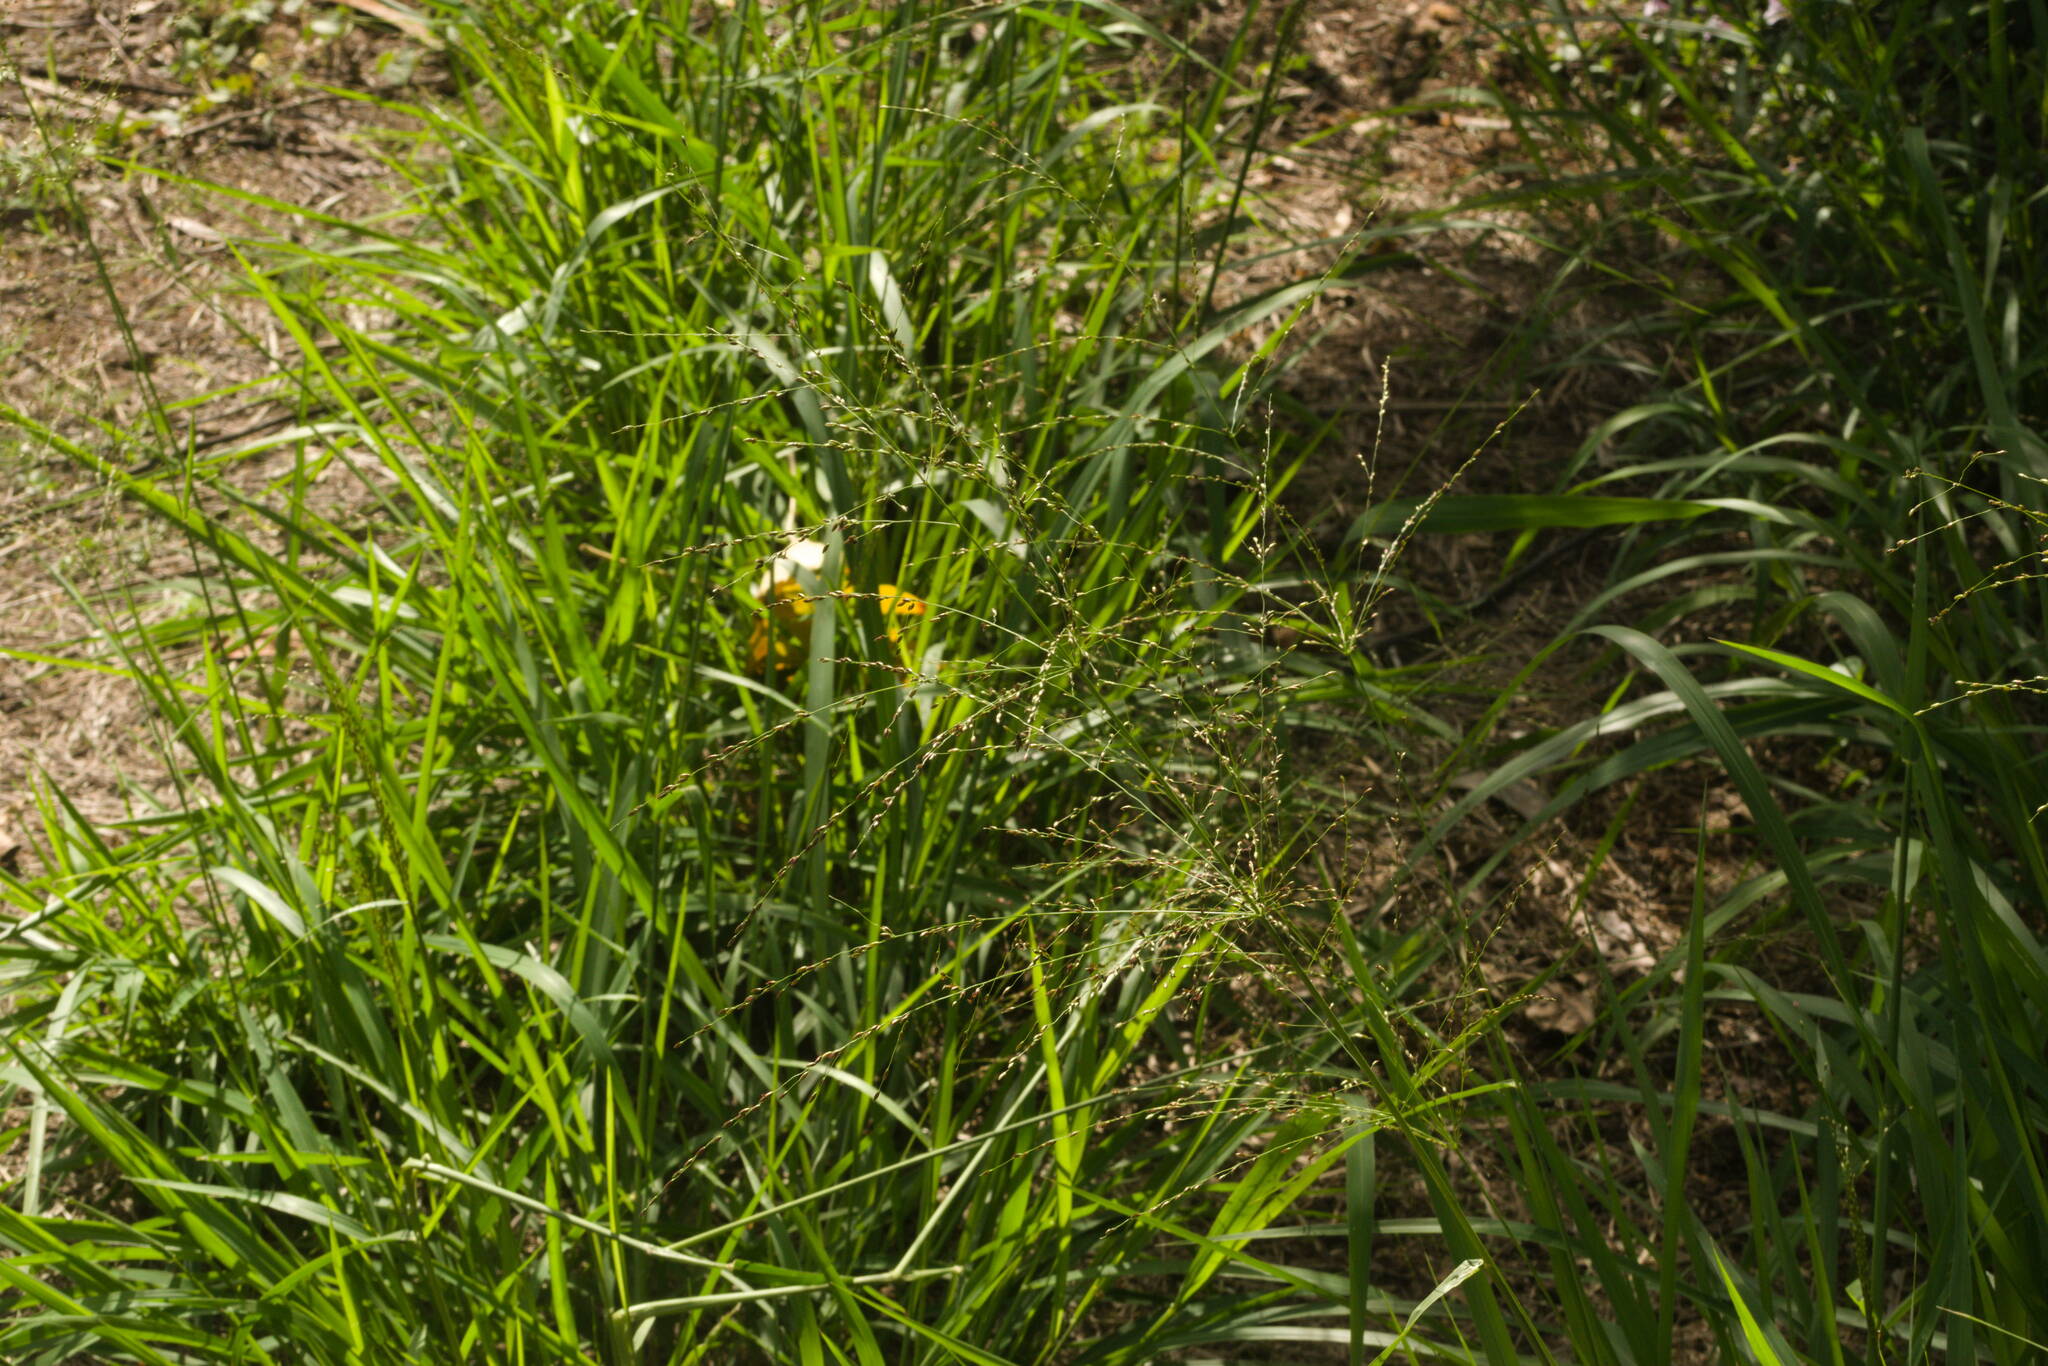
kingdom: Plantae
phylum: Tracheophyta
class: Liliopsida
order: Poales
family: Poaceae
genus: Megathyrsus
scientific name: Megathyrsus maximus
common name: Guineagrass
